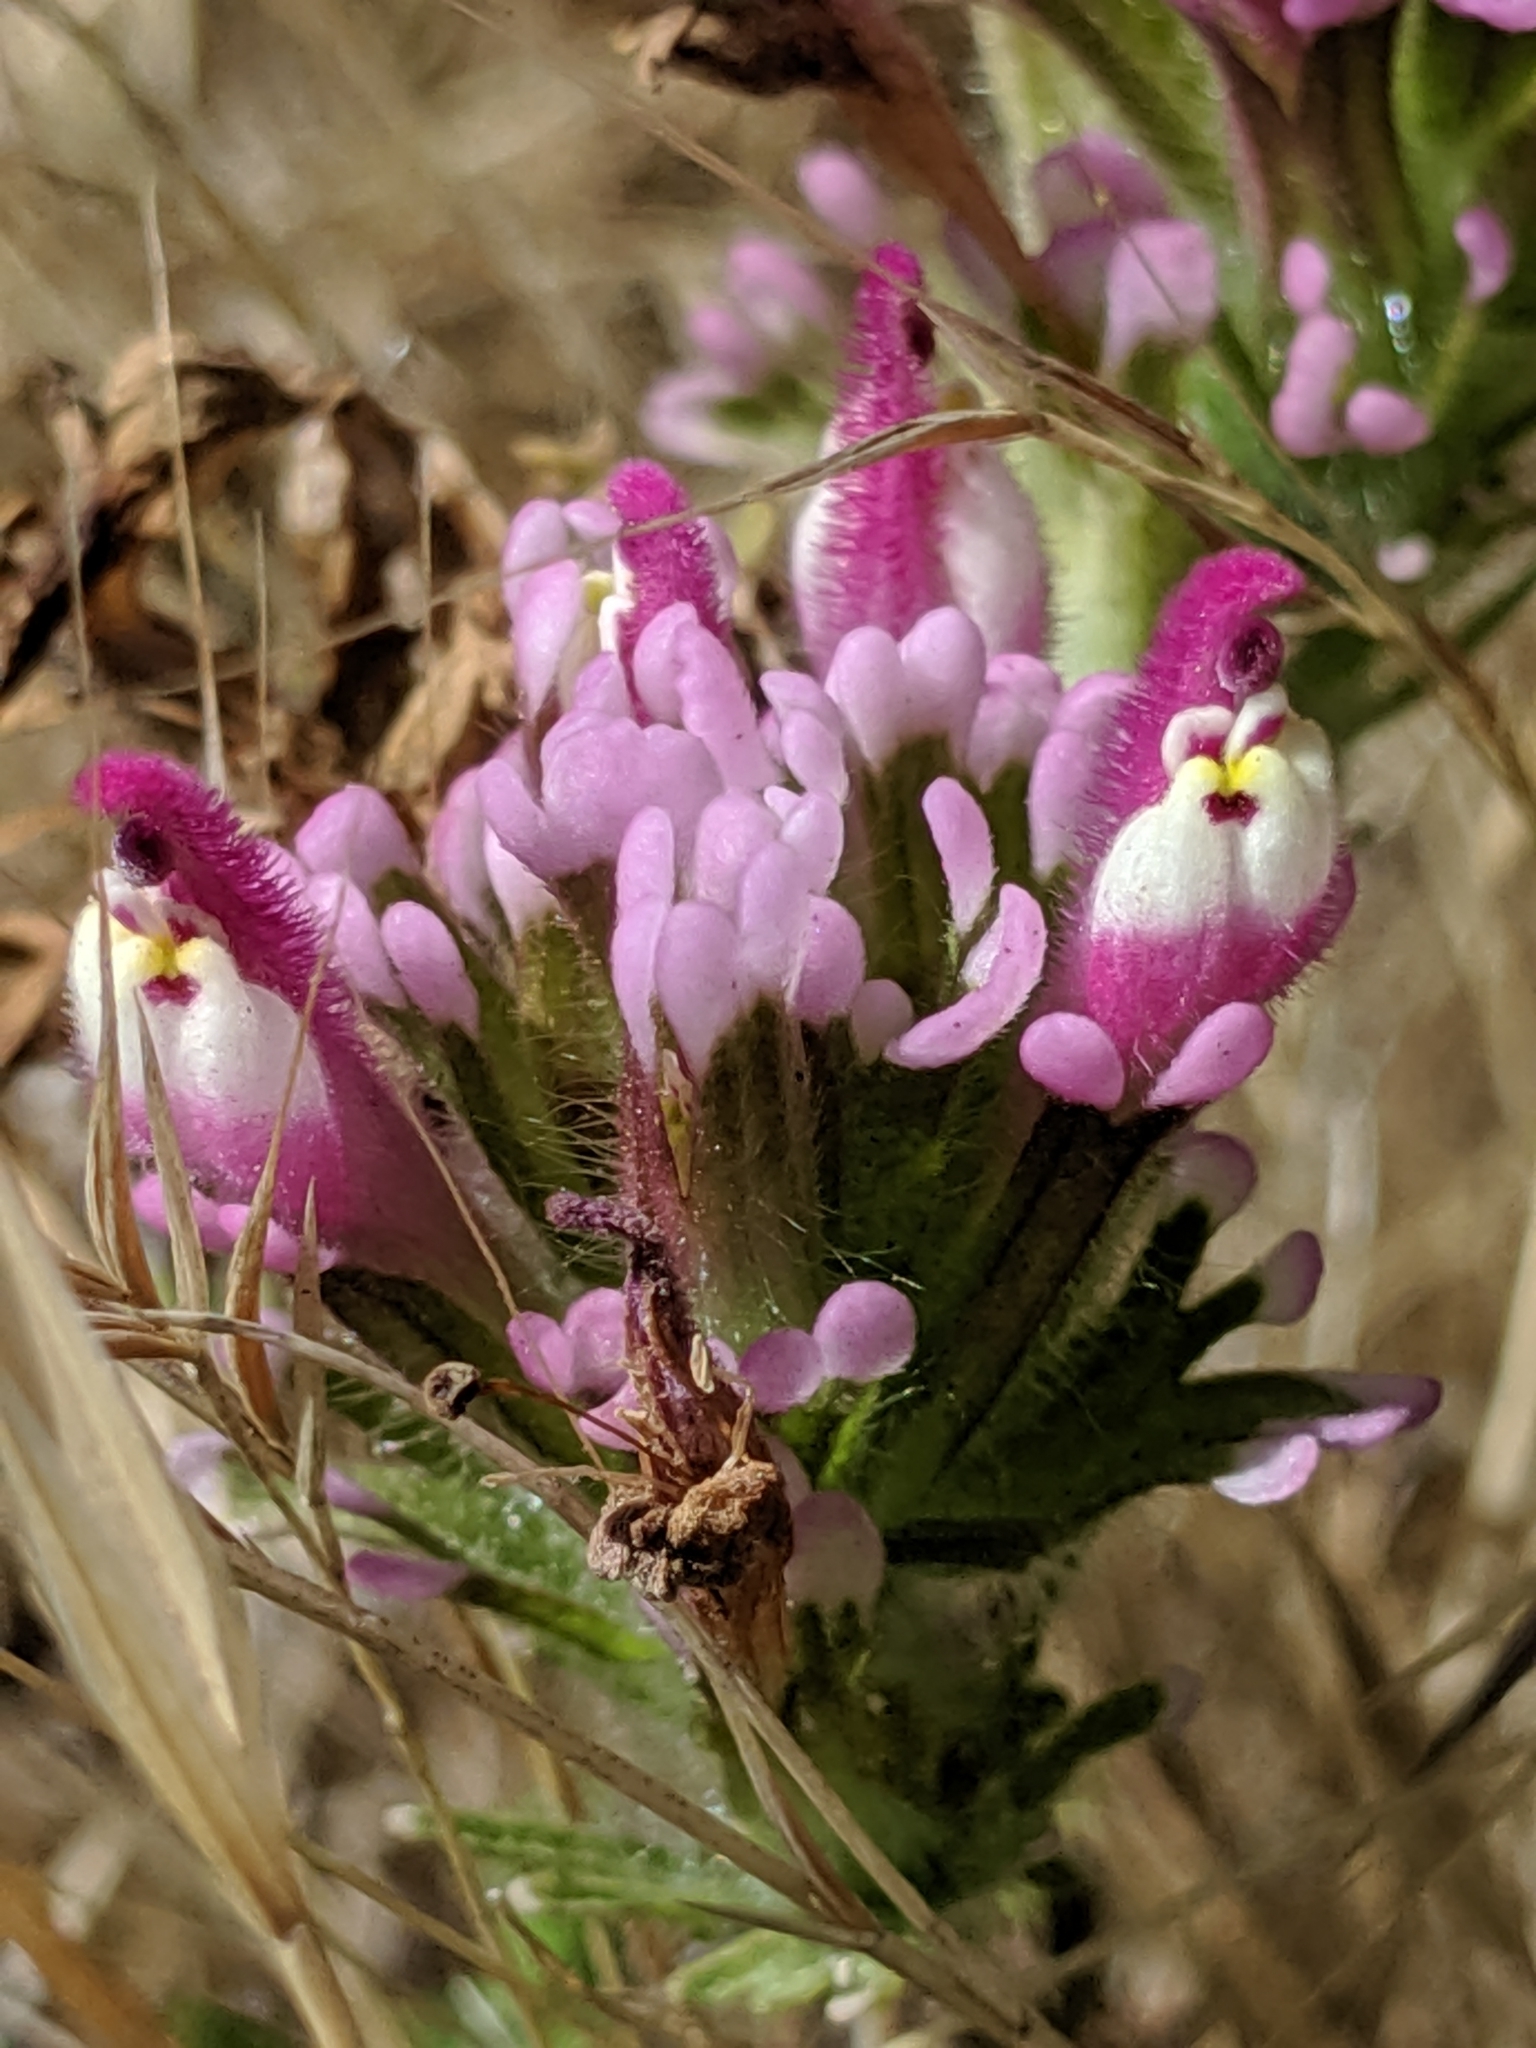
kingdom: Plantae
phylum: Tracheophyta
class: Magnoliopsida
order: Lamiales
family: Orobanchaceae
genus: Castilleja
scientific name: Castilleja exserta
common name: Purple owl-clover
